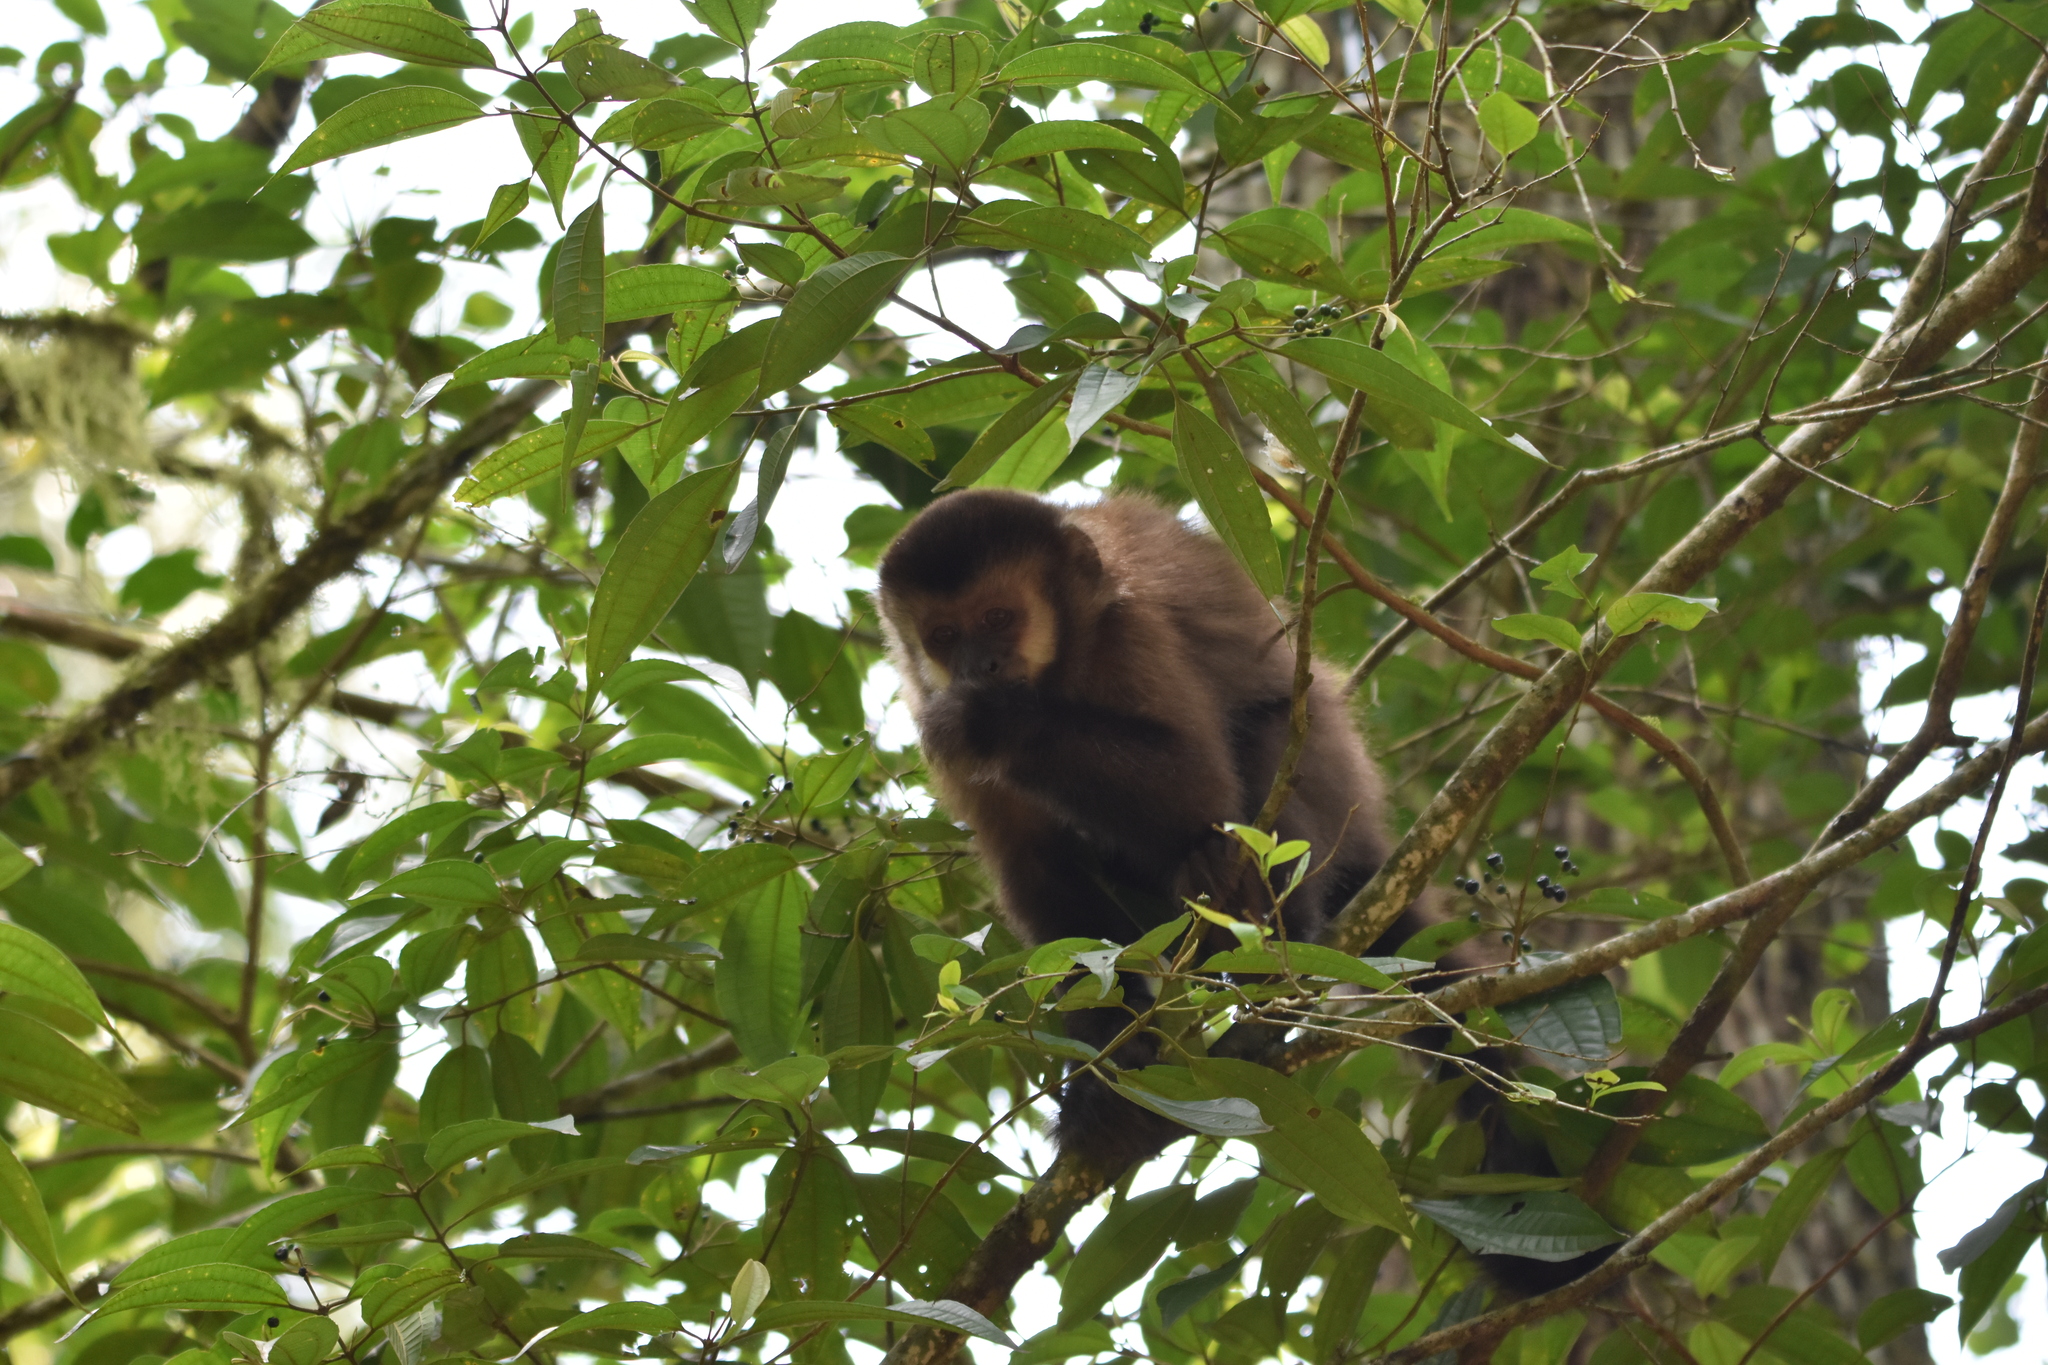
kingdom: Animalia
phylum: Chordata
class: Mammalia
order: Primates
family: Cebidae
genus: Sapajus
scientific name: Sapajus nigritus
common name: Black capuchin
